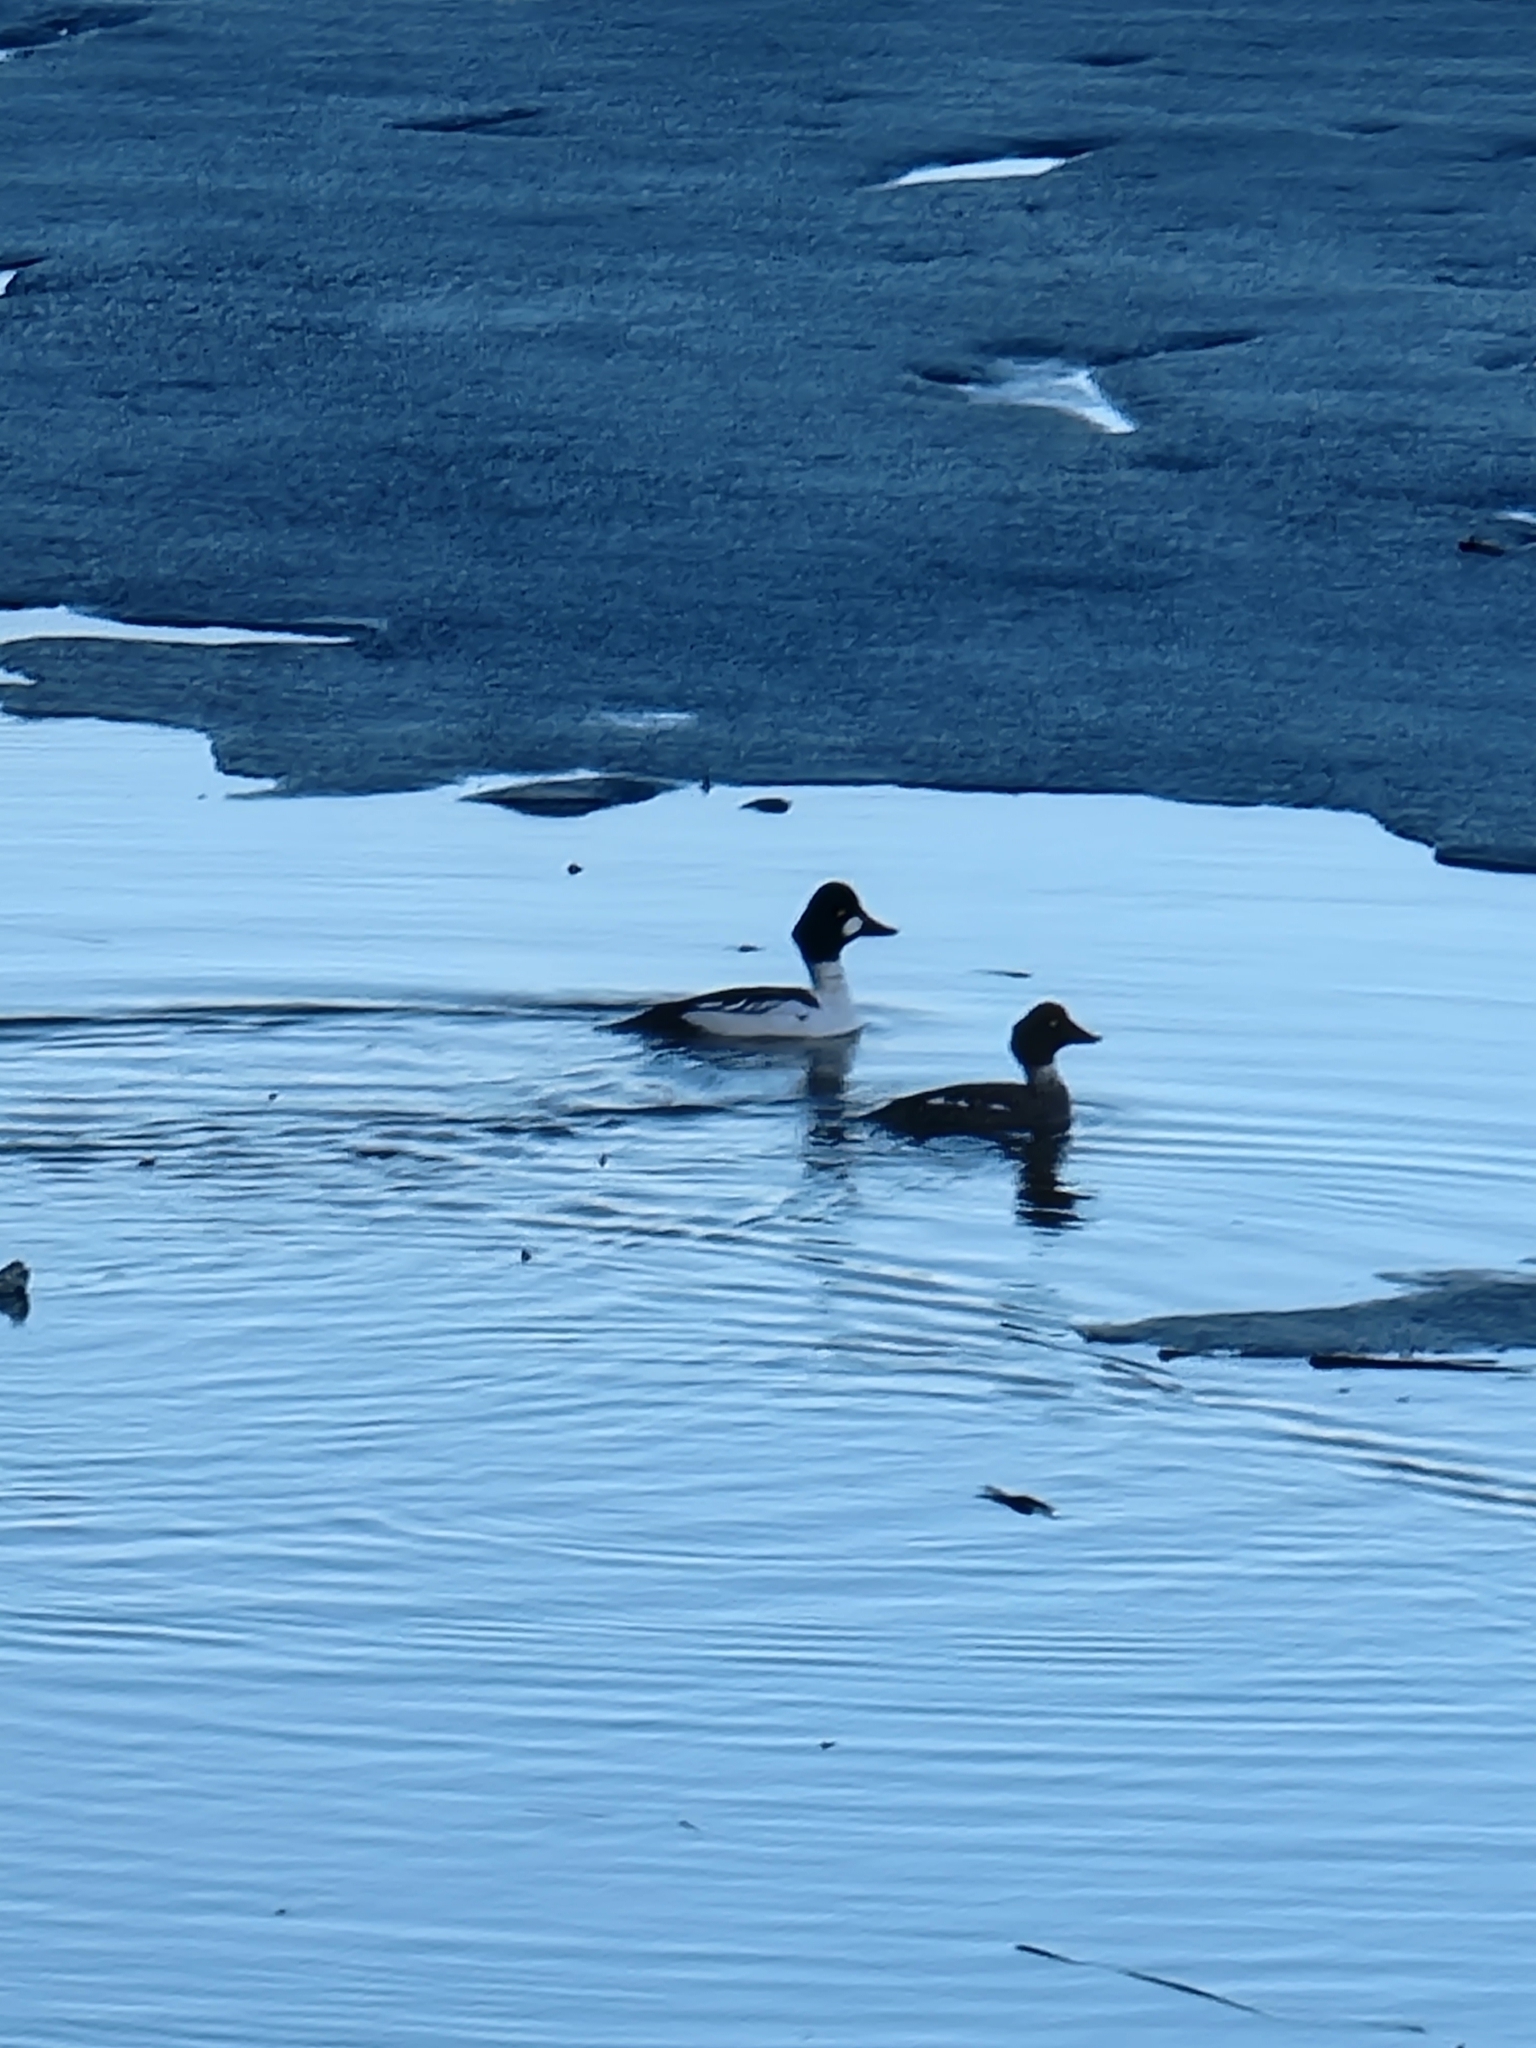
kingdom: Animalia
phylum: Chordata
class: Aves
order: Anseriformes
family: Anatidae
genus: Bucephala
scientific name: Bucephala clangula
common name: Common goldeneye
